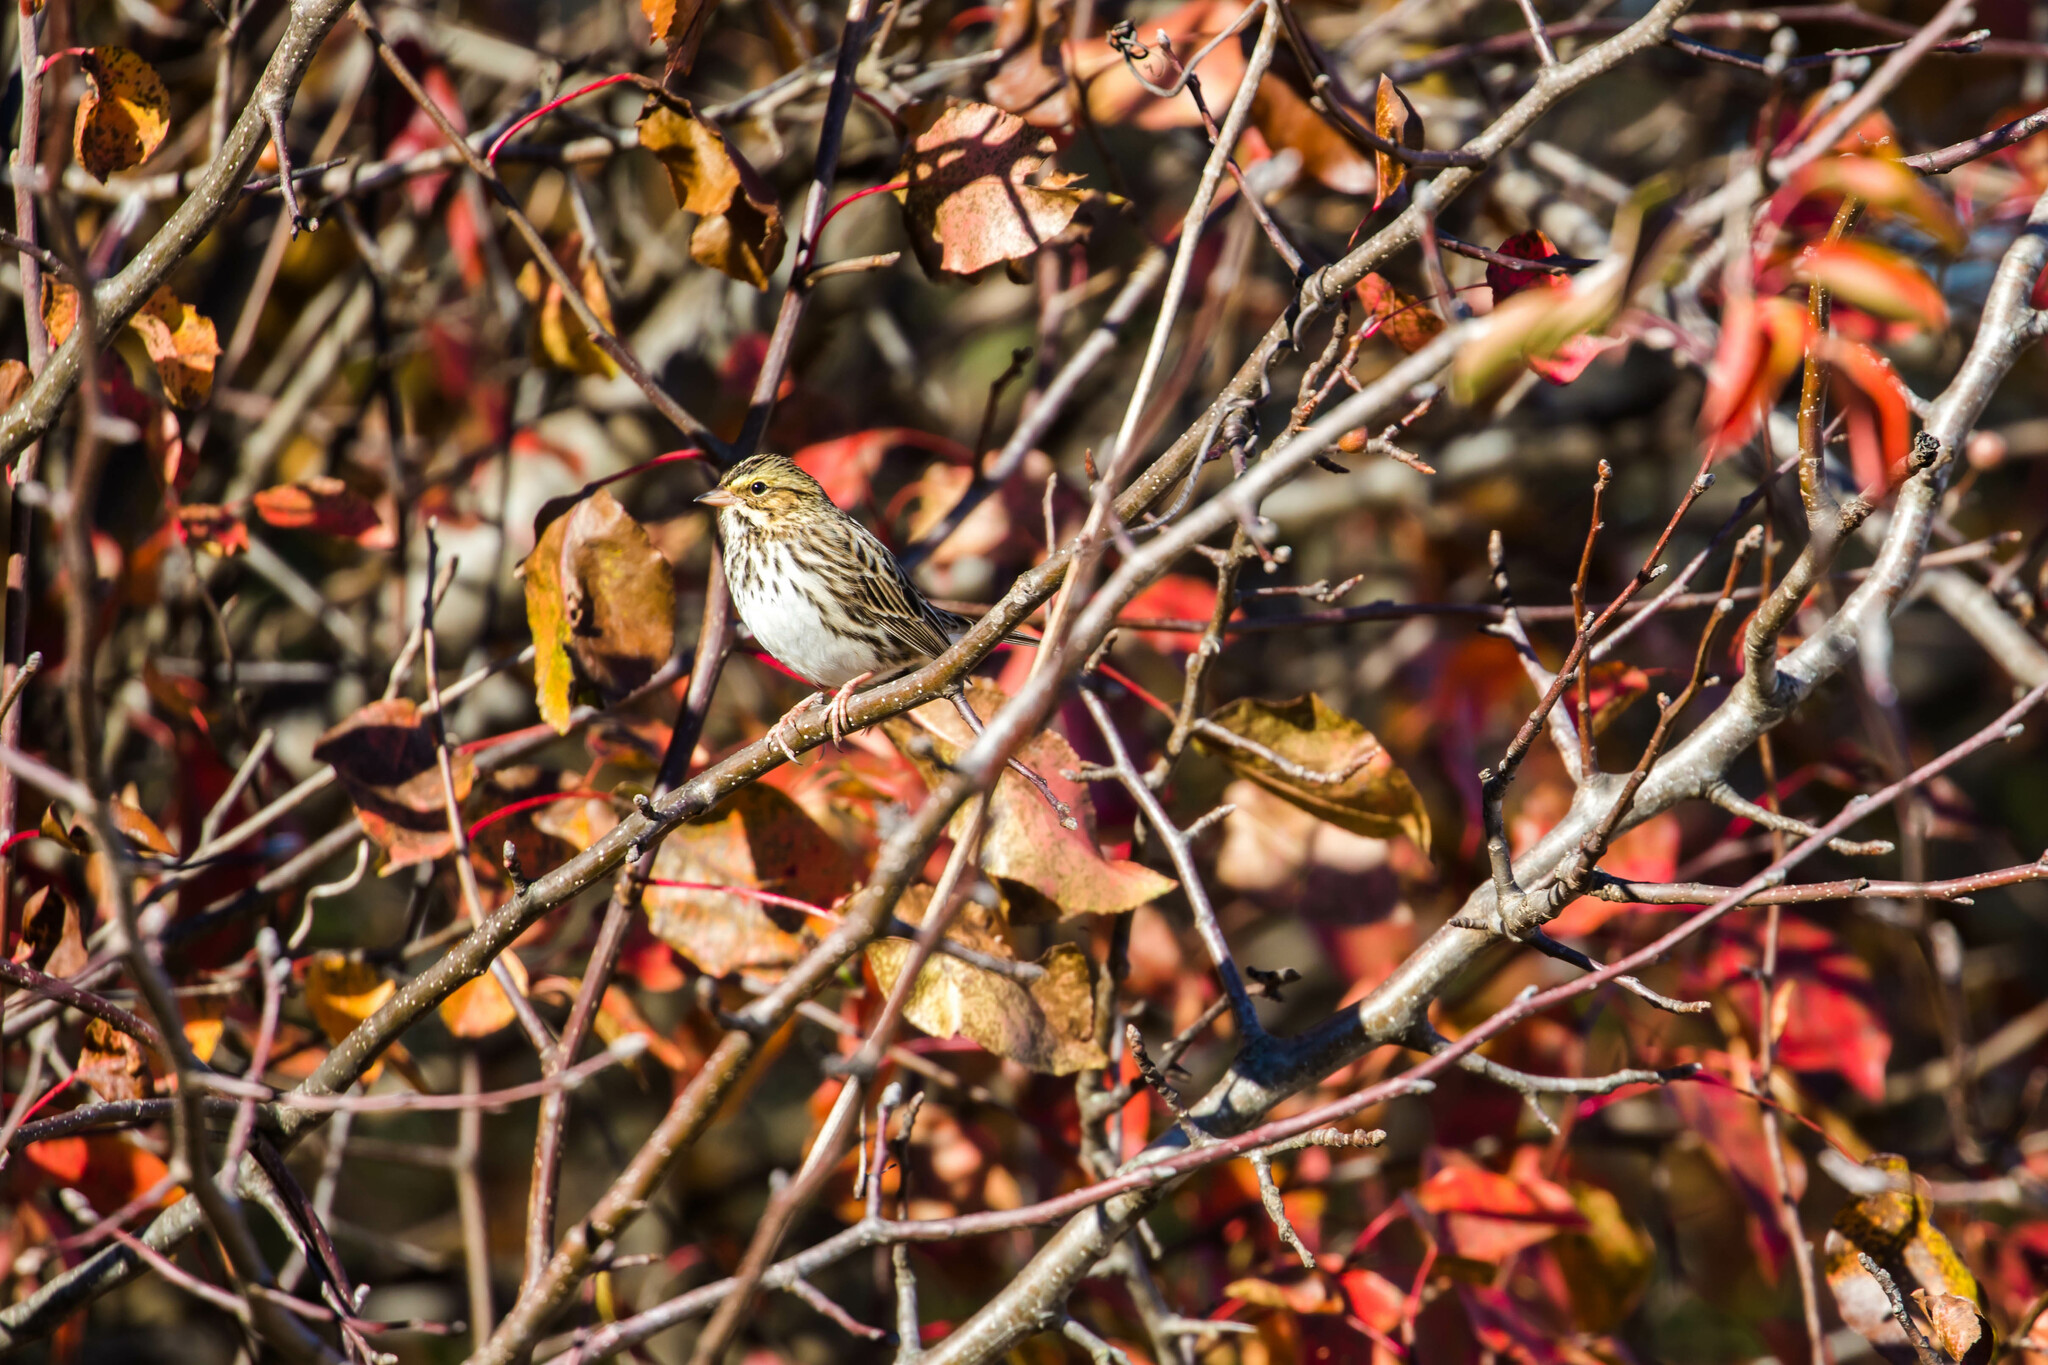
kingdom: Animalia
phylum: Chordata
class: Aves
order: Passeriformes
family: Passerellidae
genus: Passerculus
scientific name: Passerculus sandwichensis
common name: Savannah sparrow
